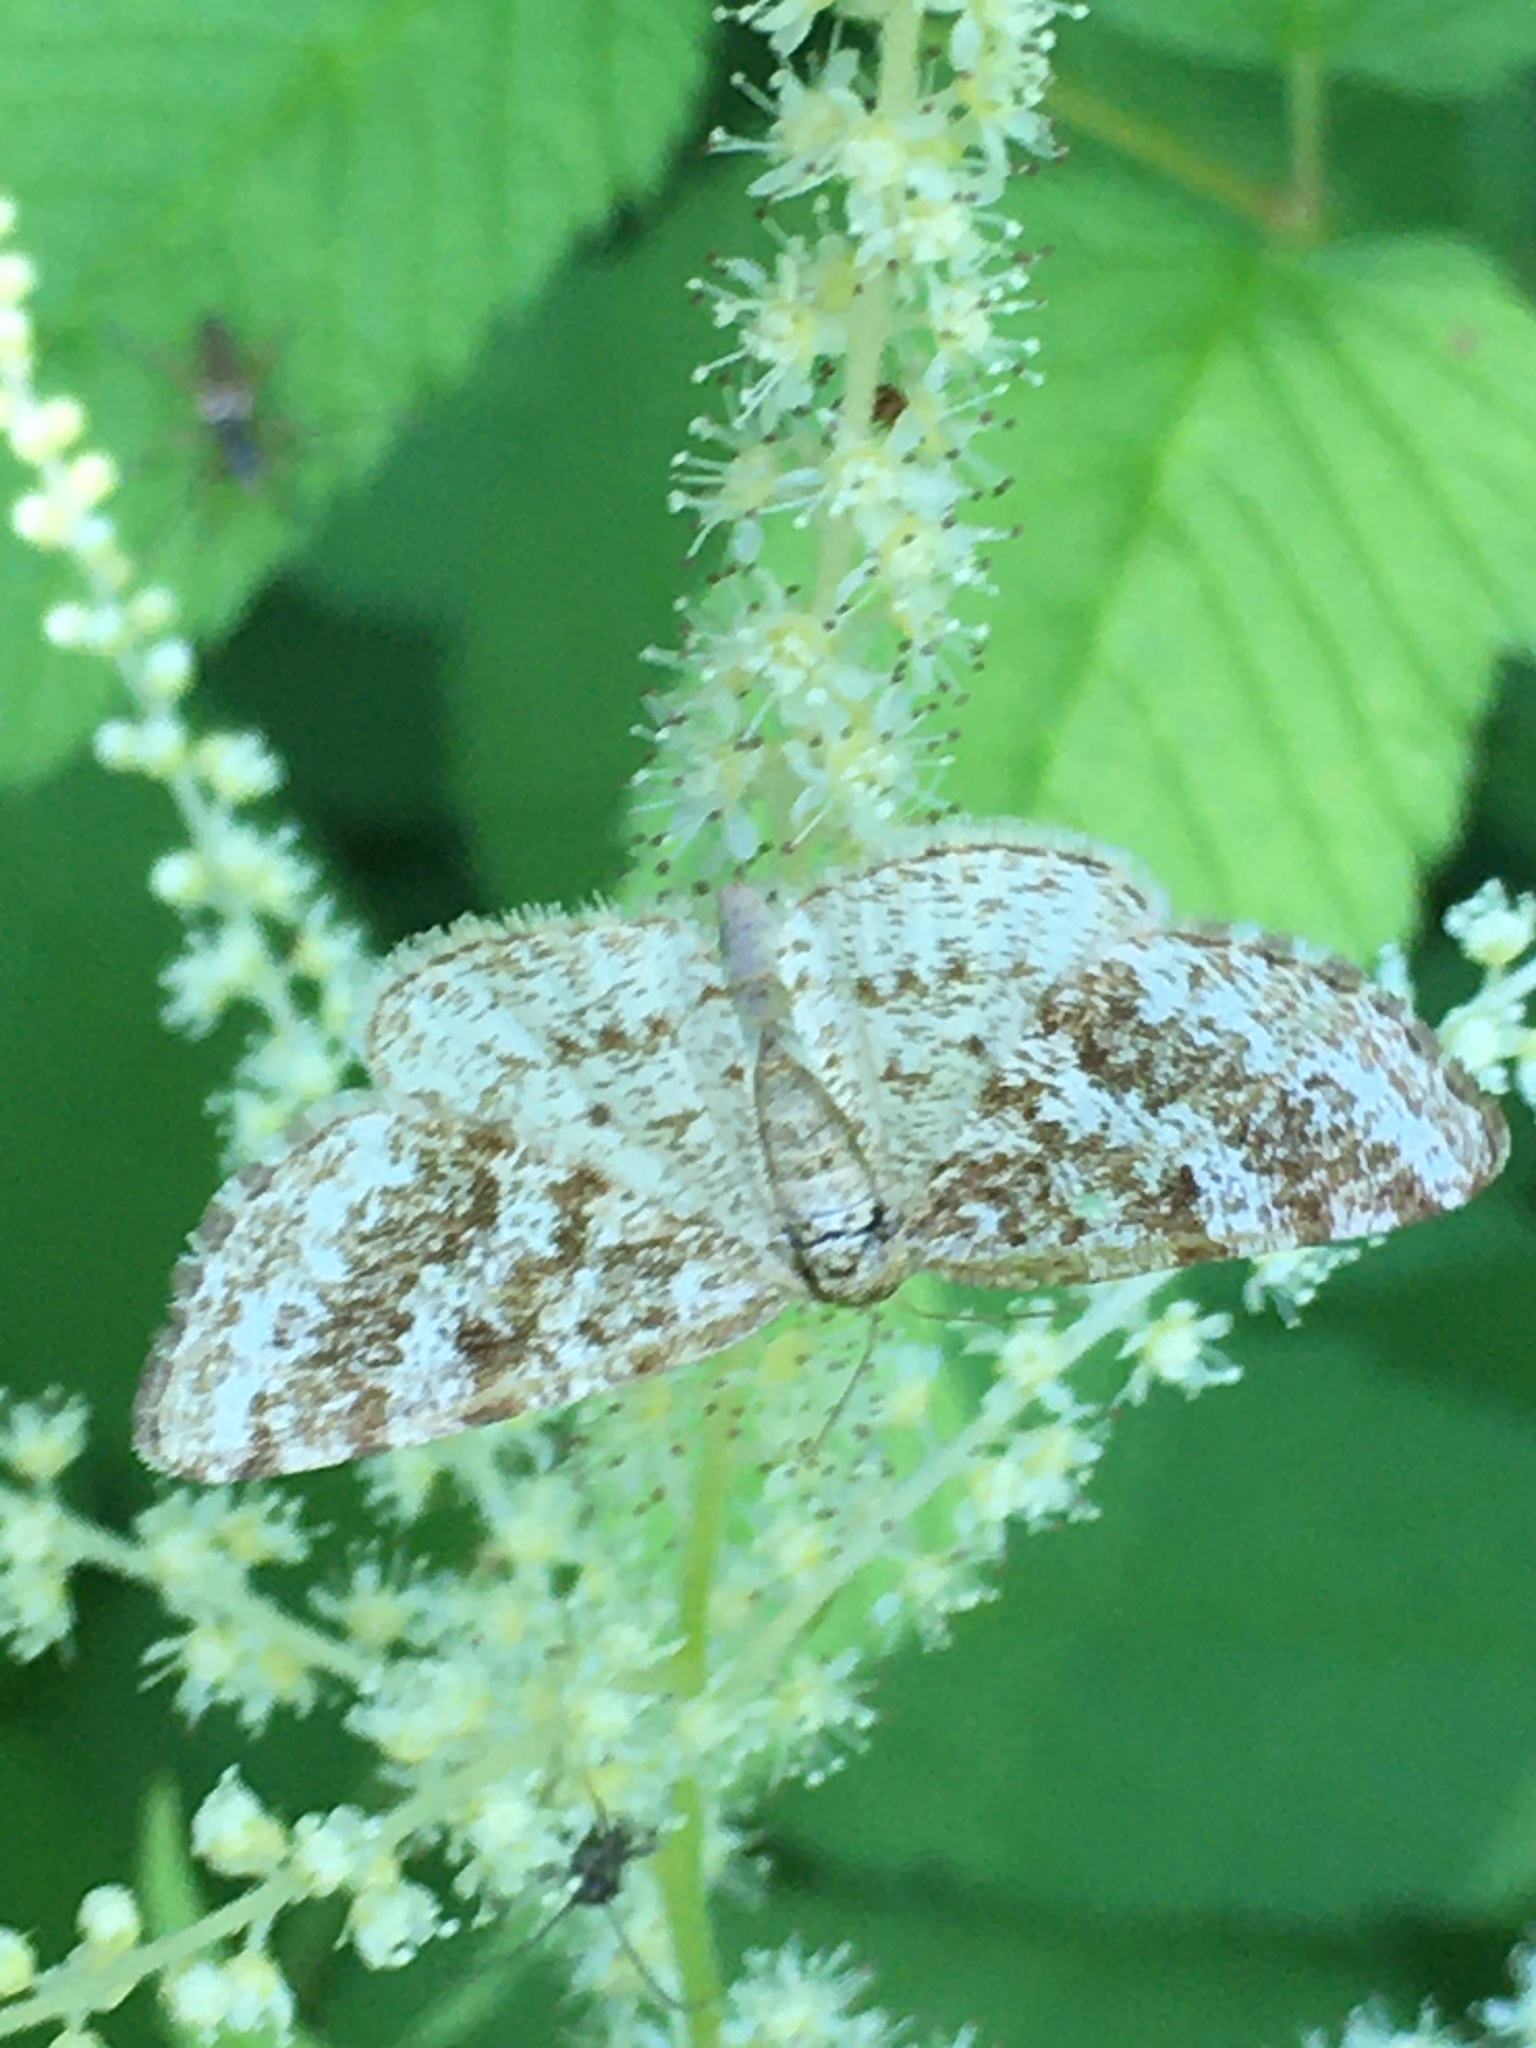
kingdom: Animalia
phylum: Arthropoda
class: Insecta
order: Lepidoptera
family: Geometridae
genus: Eufidonia
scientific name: Eufidonia notataria
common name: Powder moth
